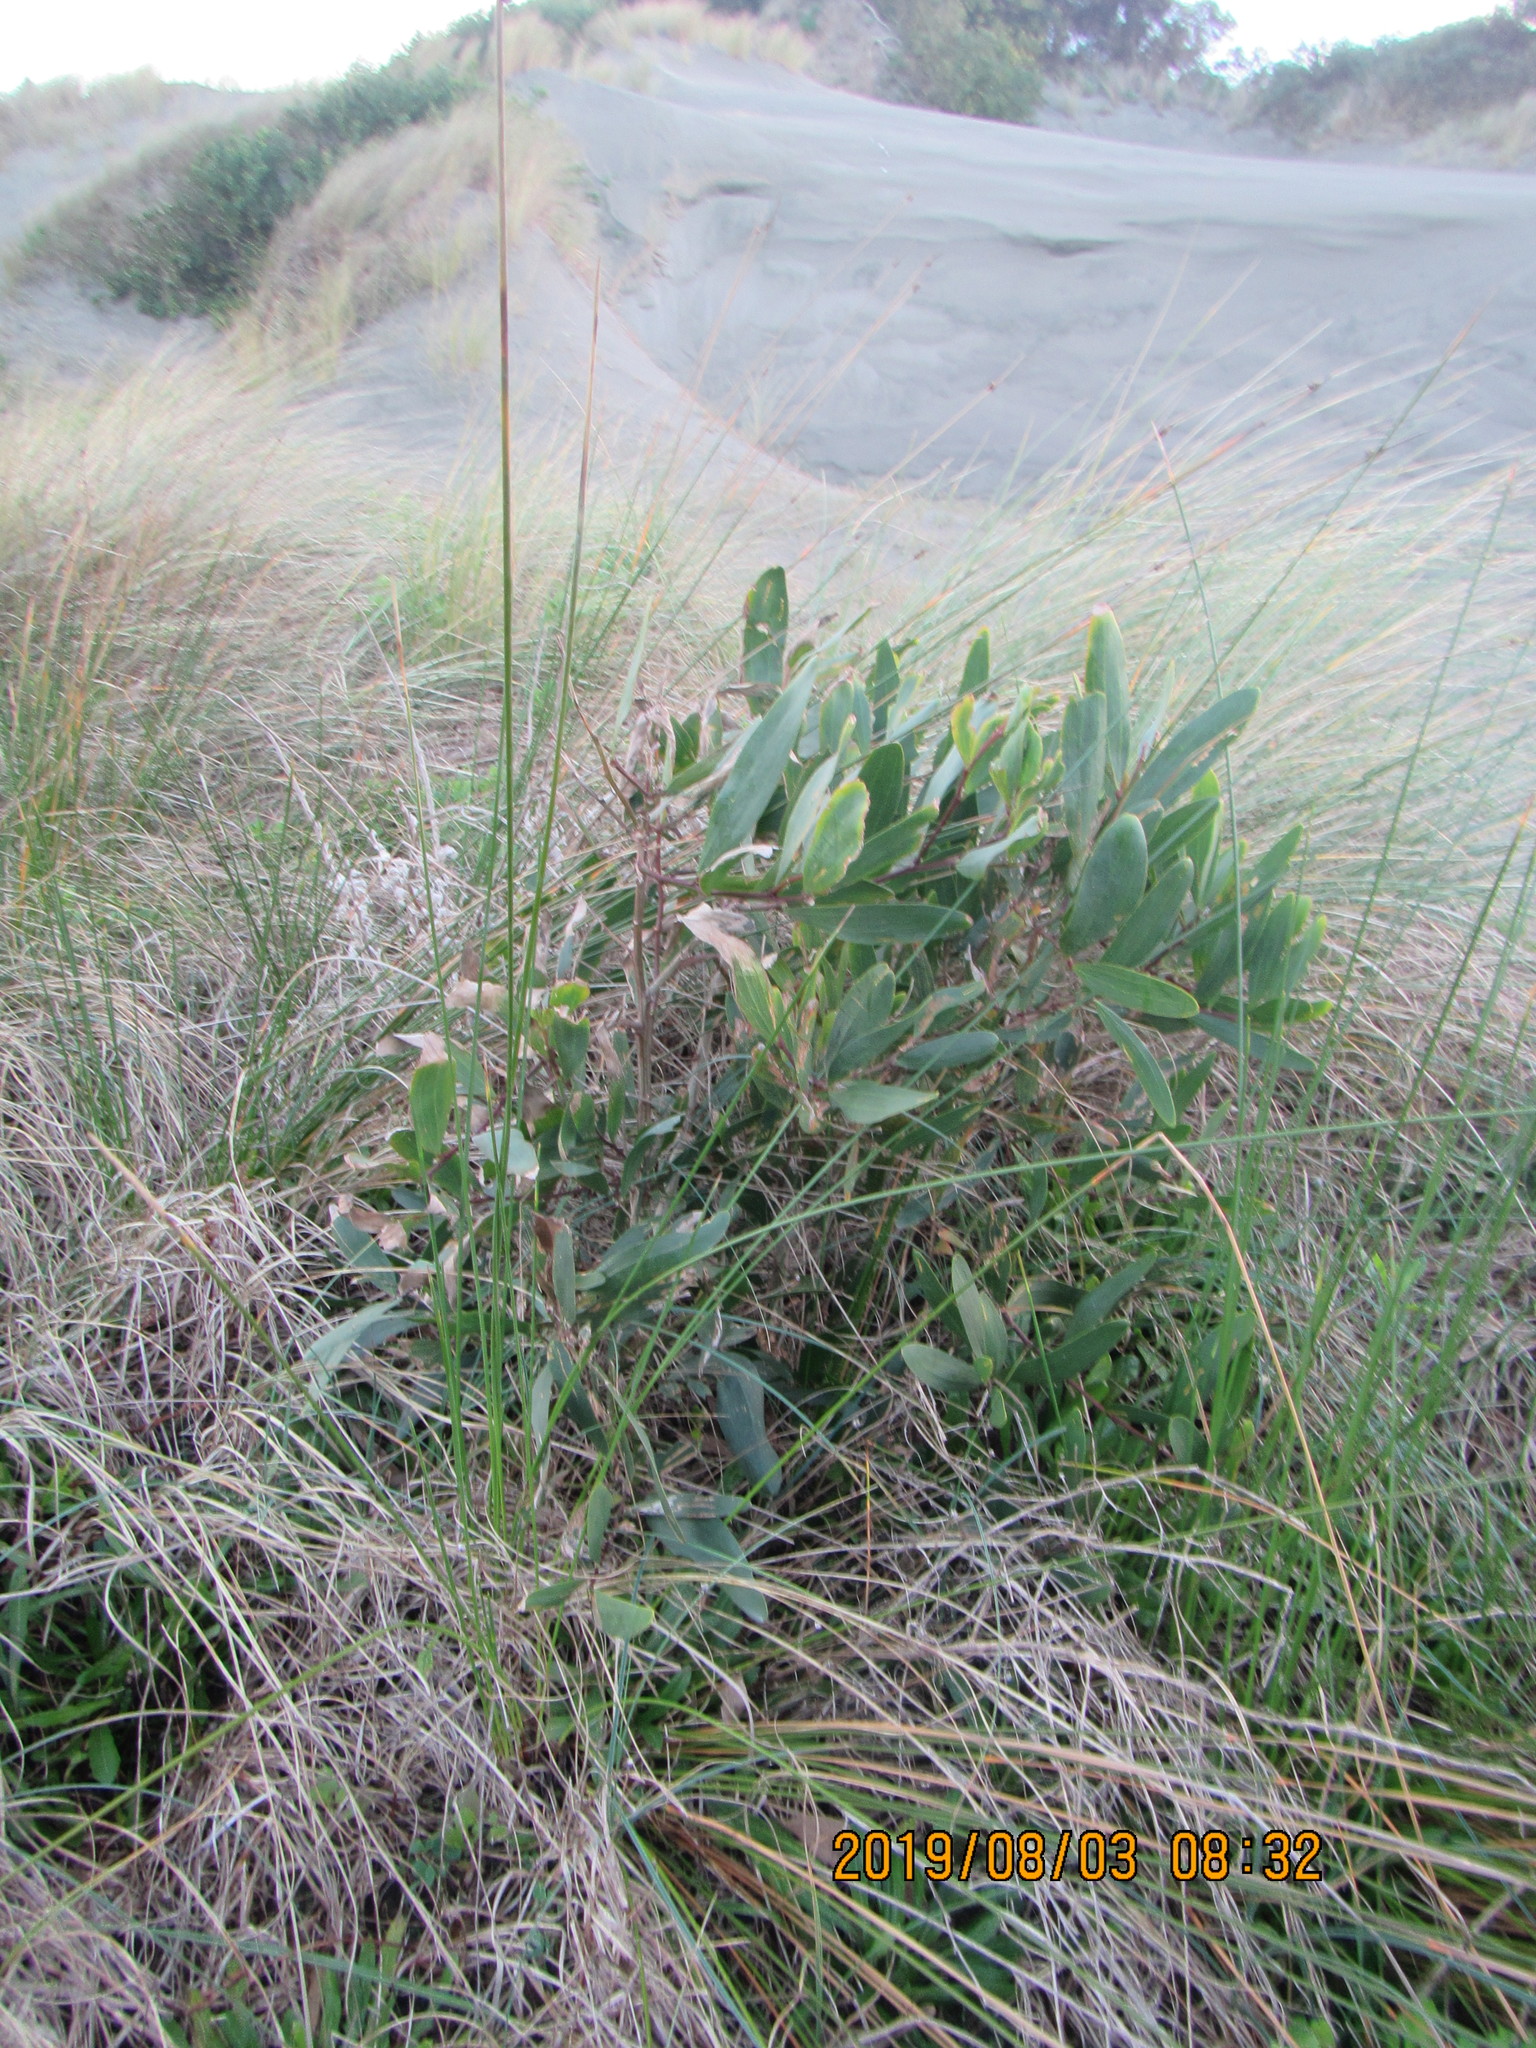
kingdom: Plantae
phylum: Tracheophyta
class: Magnoliopsida
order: Fabales
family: Fabaceae
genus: Acacia
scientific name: Acacia longifolia
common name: Sydney golden wattle
